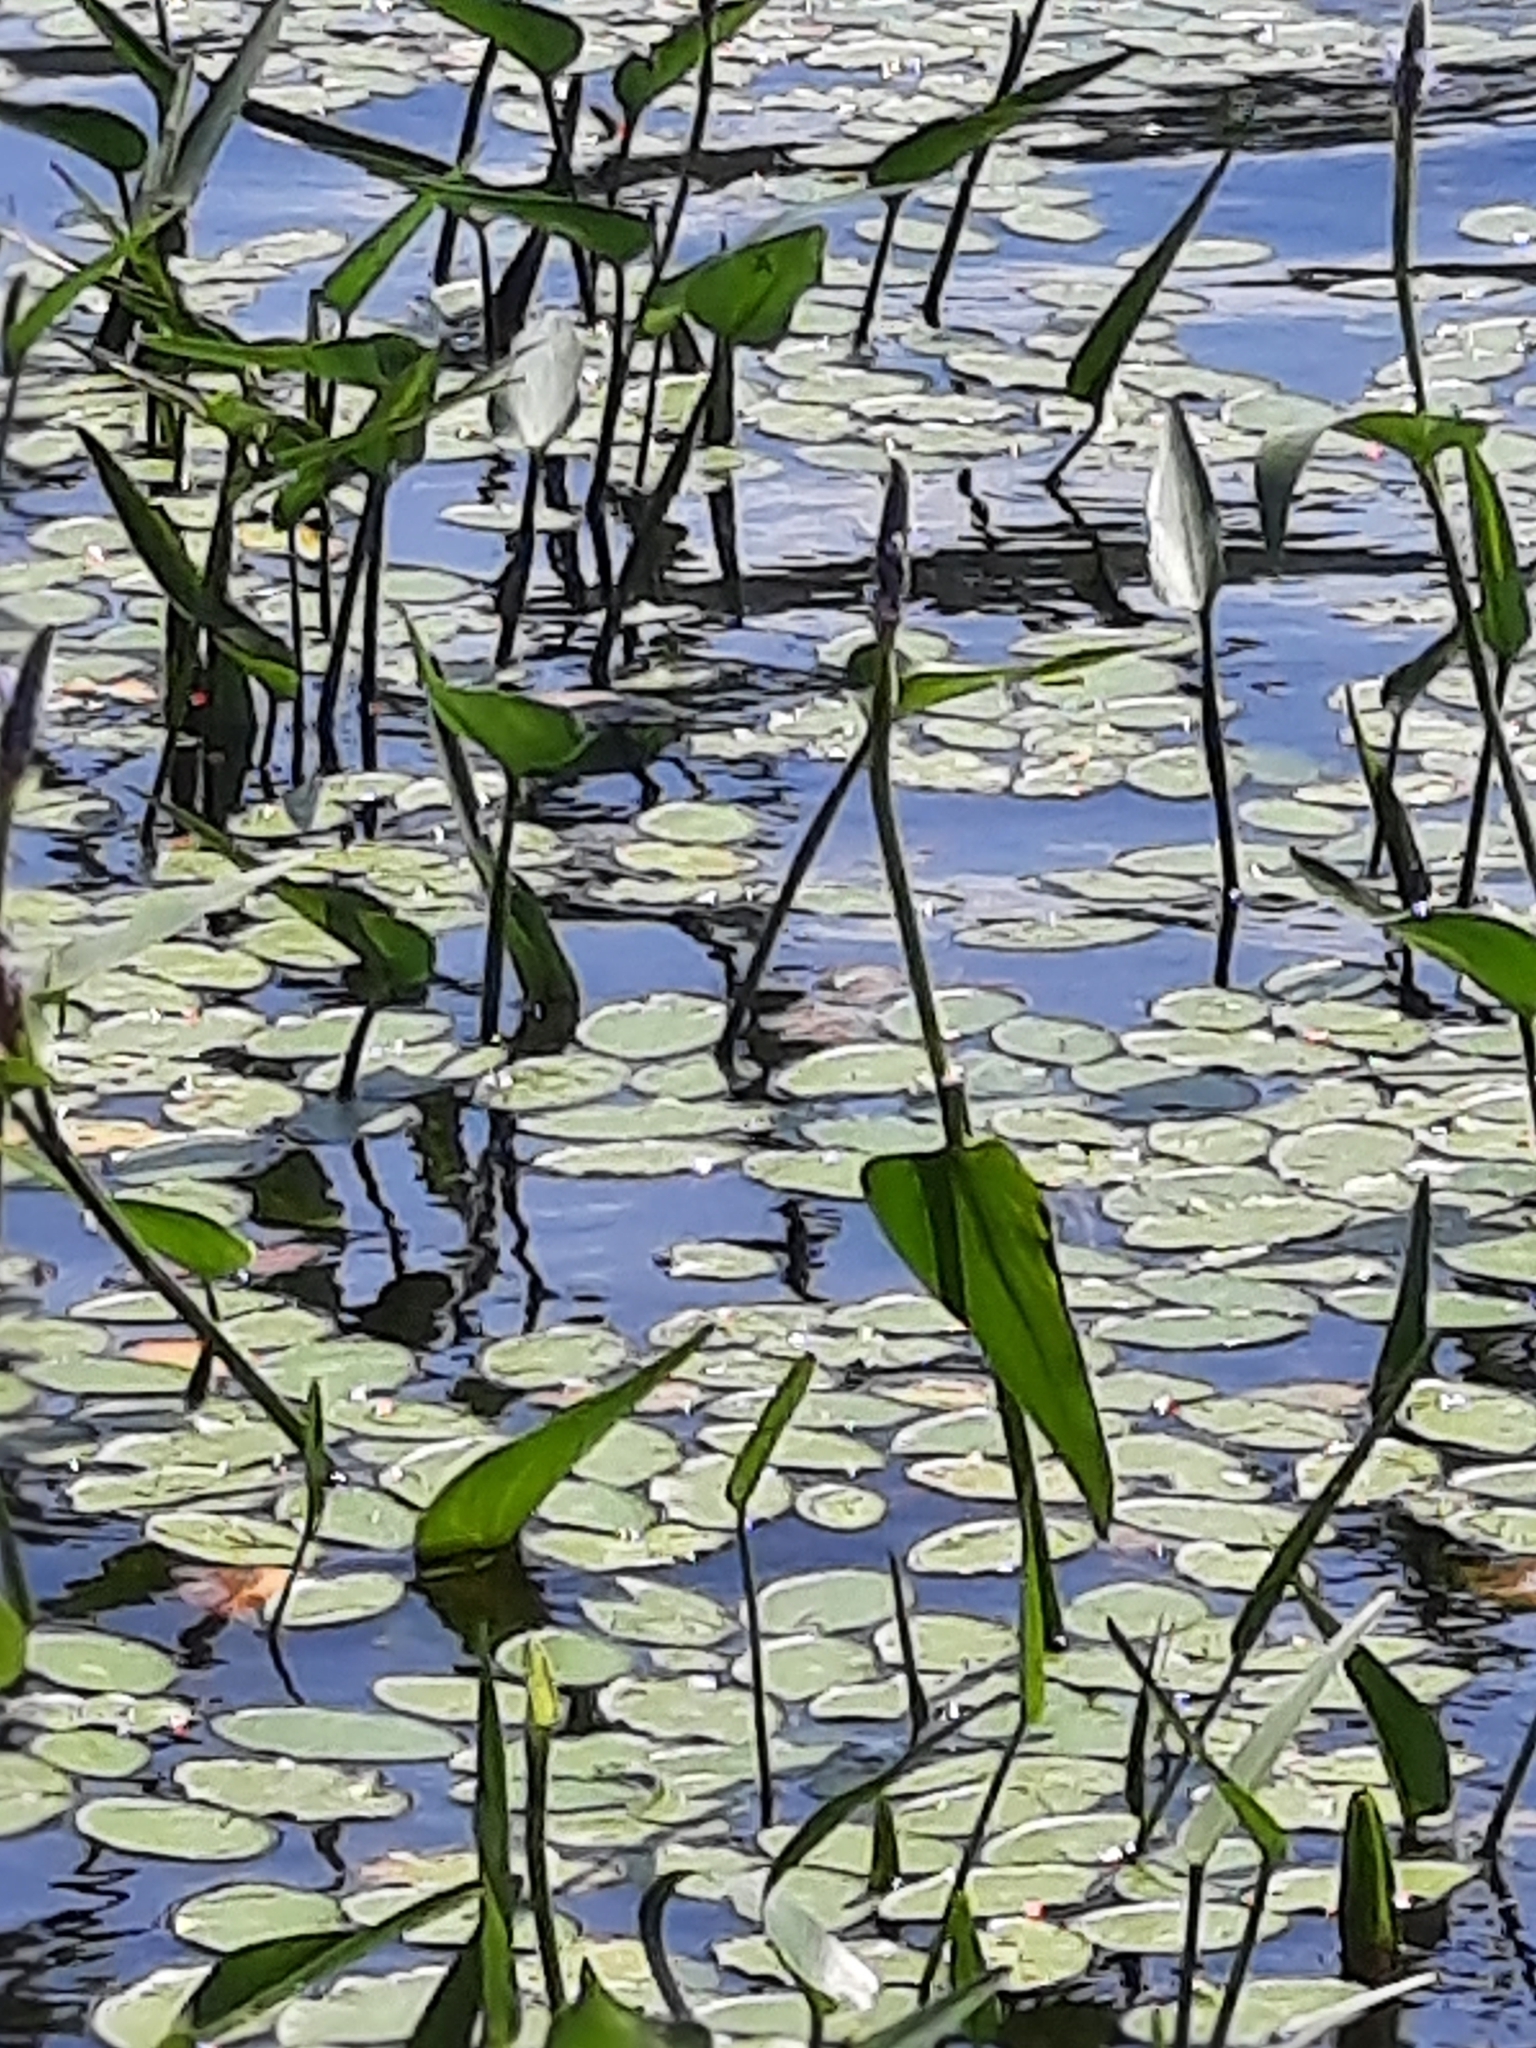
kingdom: Plantae
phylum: Tracheophyta
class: Liliopsida
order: Commelinales
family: Pontederiaceae
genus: Pontederia
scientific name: Pontederia cordata
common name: Pickerelweed
